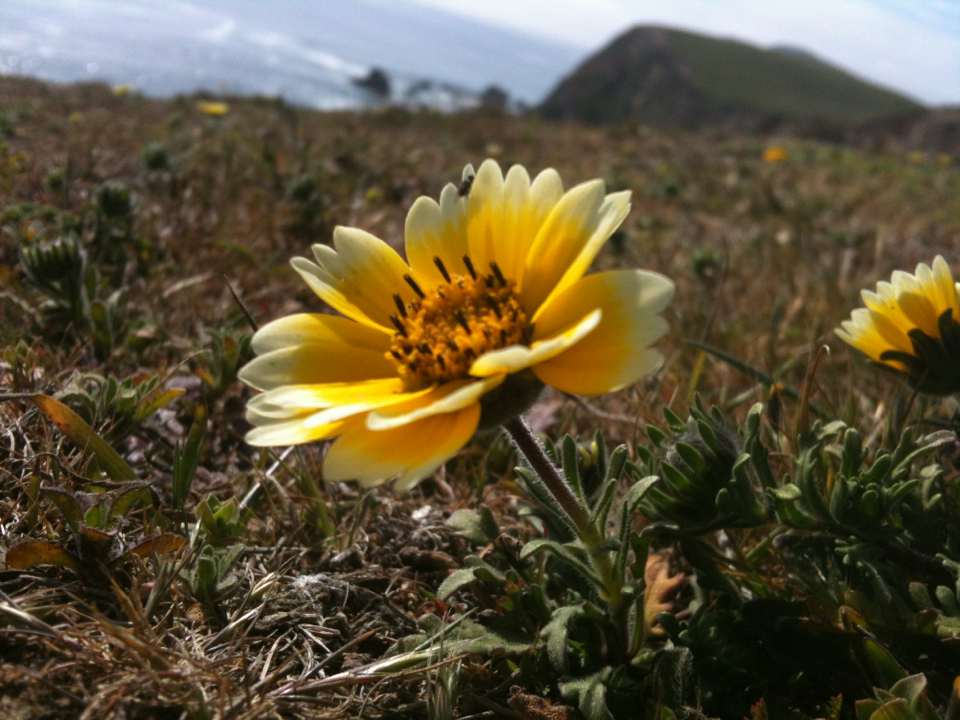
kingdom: Plantae
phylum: Tracheophyta
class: Magnoliopsida
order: Asterales
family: Asteraceae
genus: Layia
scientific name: Layia platyglossa
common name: Tidy-tips
